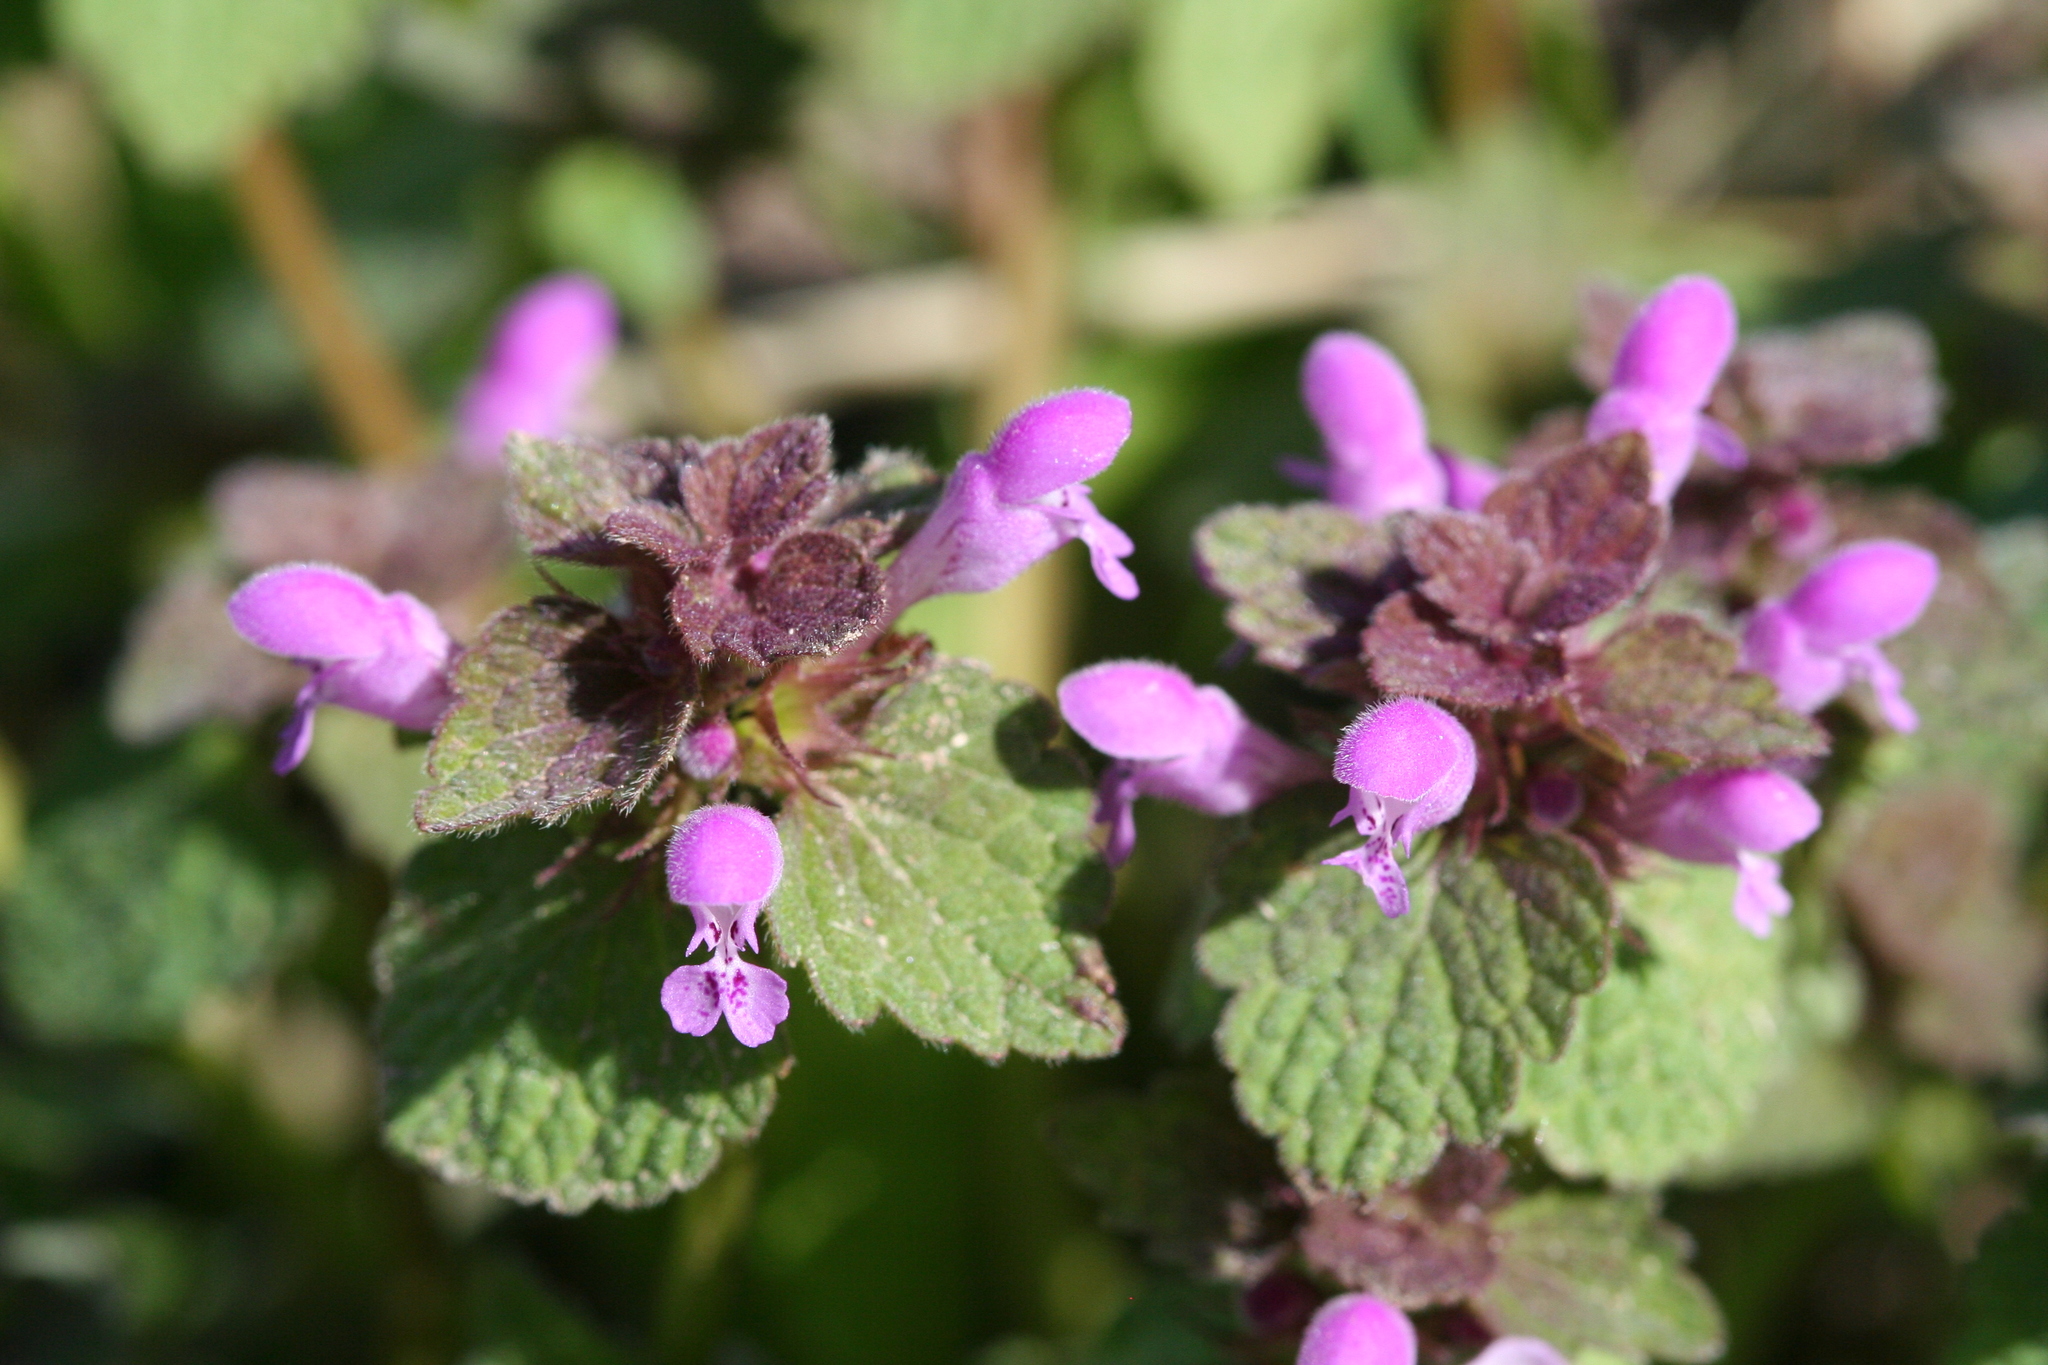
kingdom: Plantae
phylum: Tracheophyta
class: Magnoliopsida
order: Lamiales
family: Lamiaceae
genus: Lamium
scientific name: Lamium purpureum
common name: Red dead-nettle
